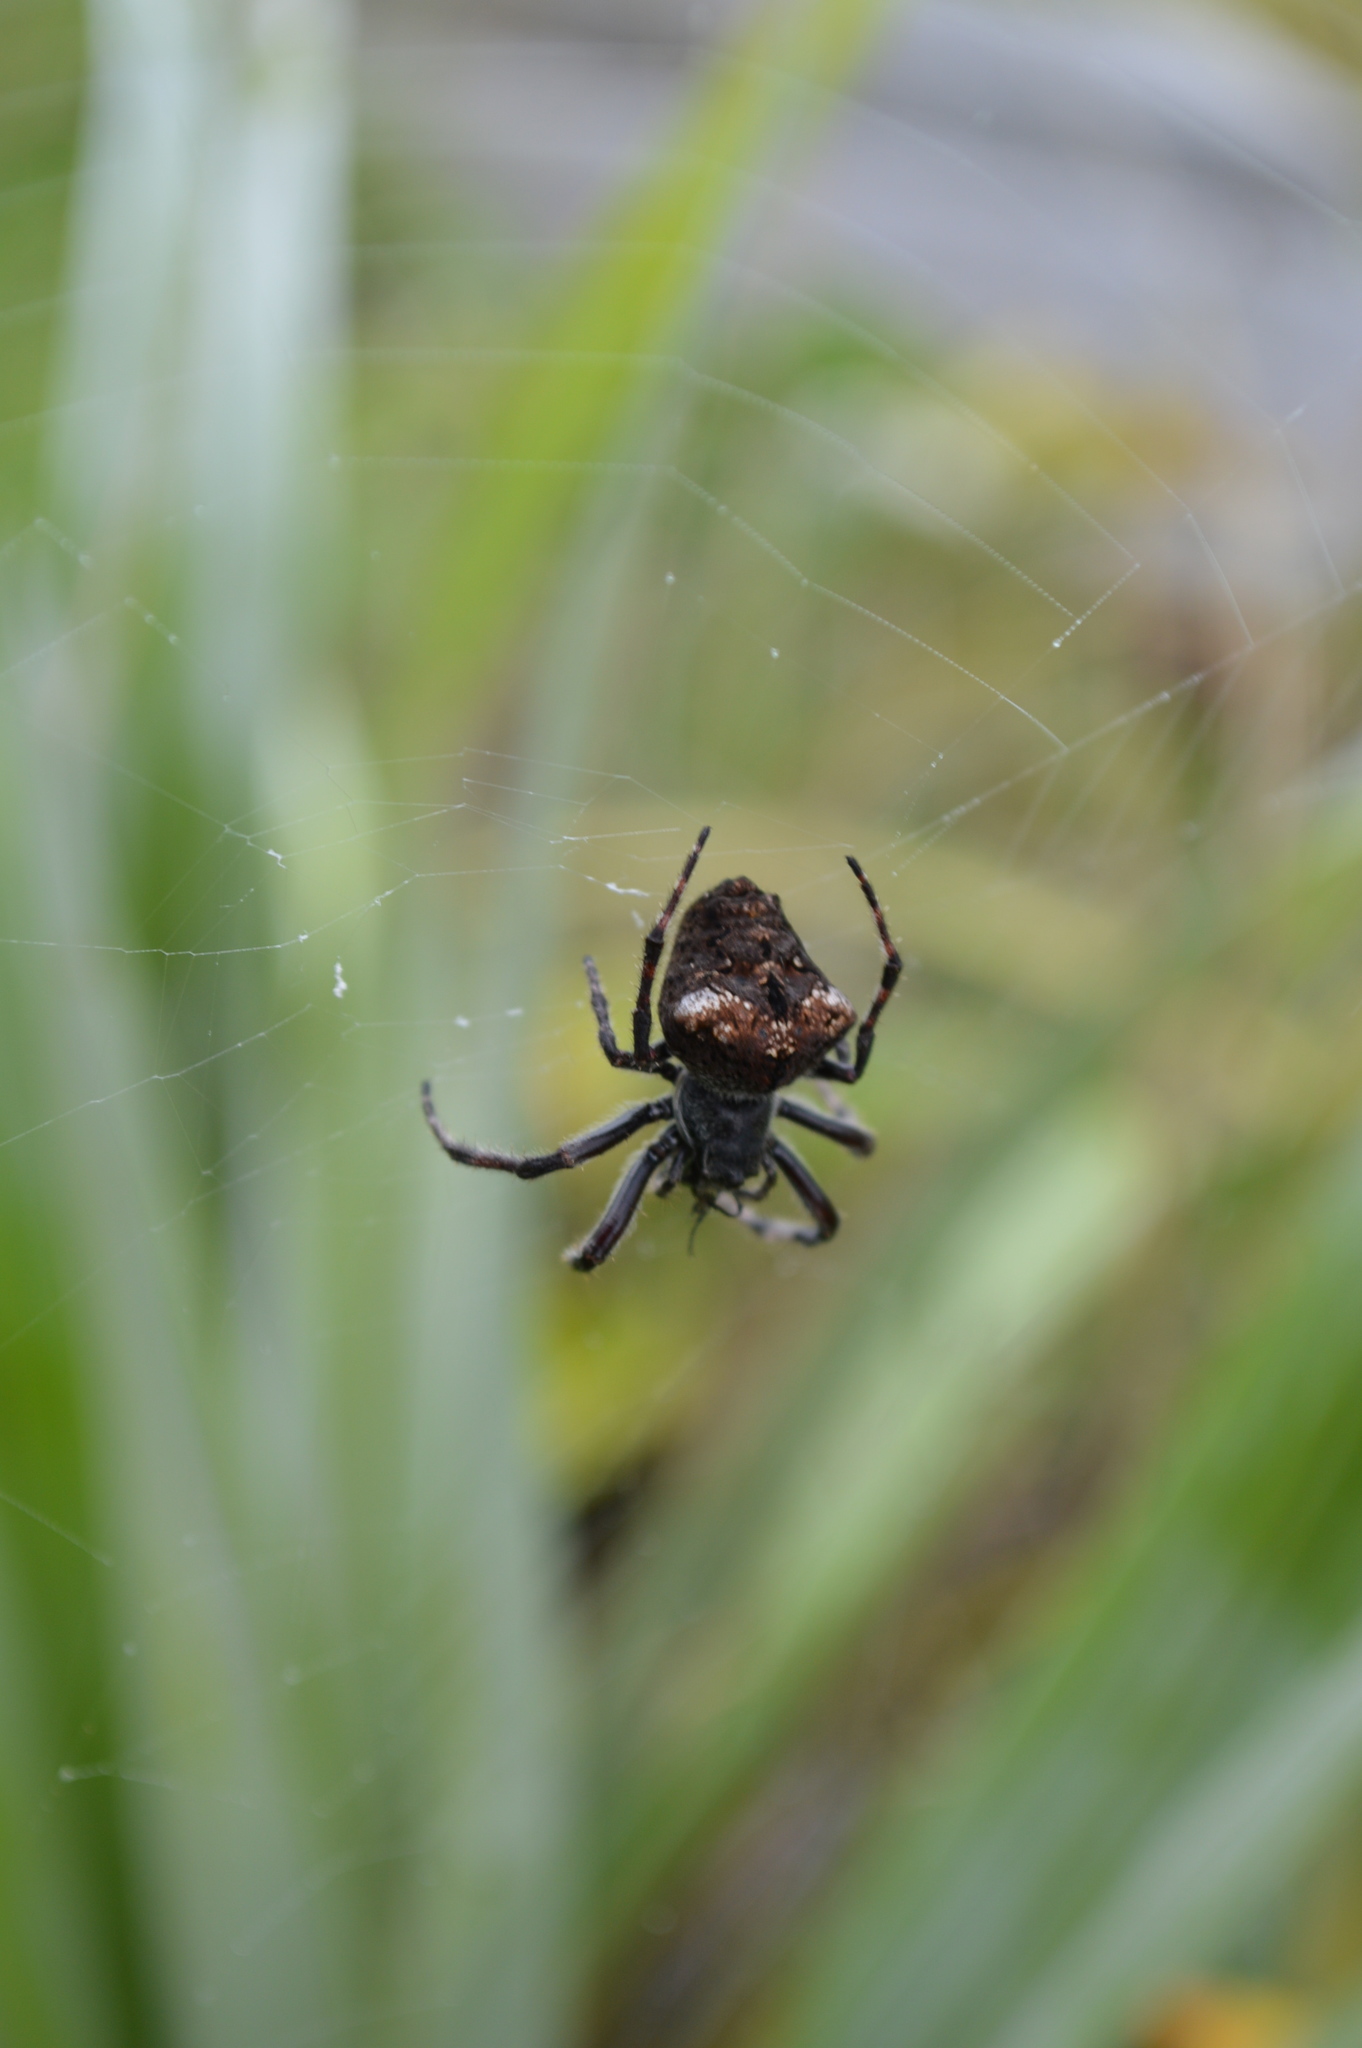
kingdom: Animalia
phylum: Arthropoda
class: Arachnida
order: Araneae
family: Araneidae
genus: Eriophora
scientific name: Eriophora pustulosa
